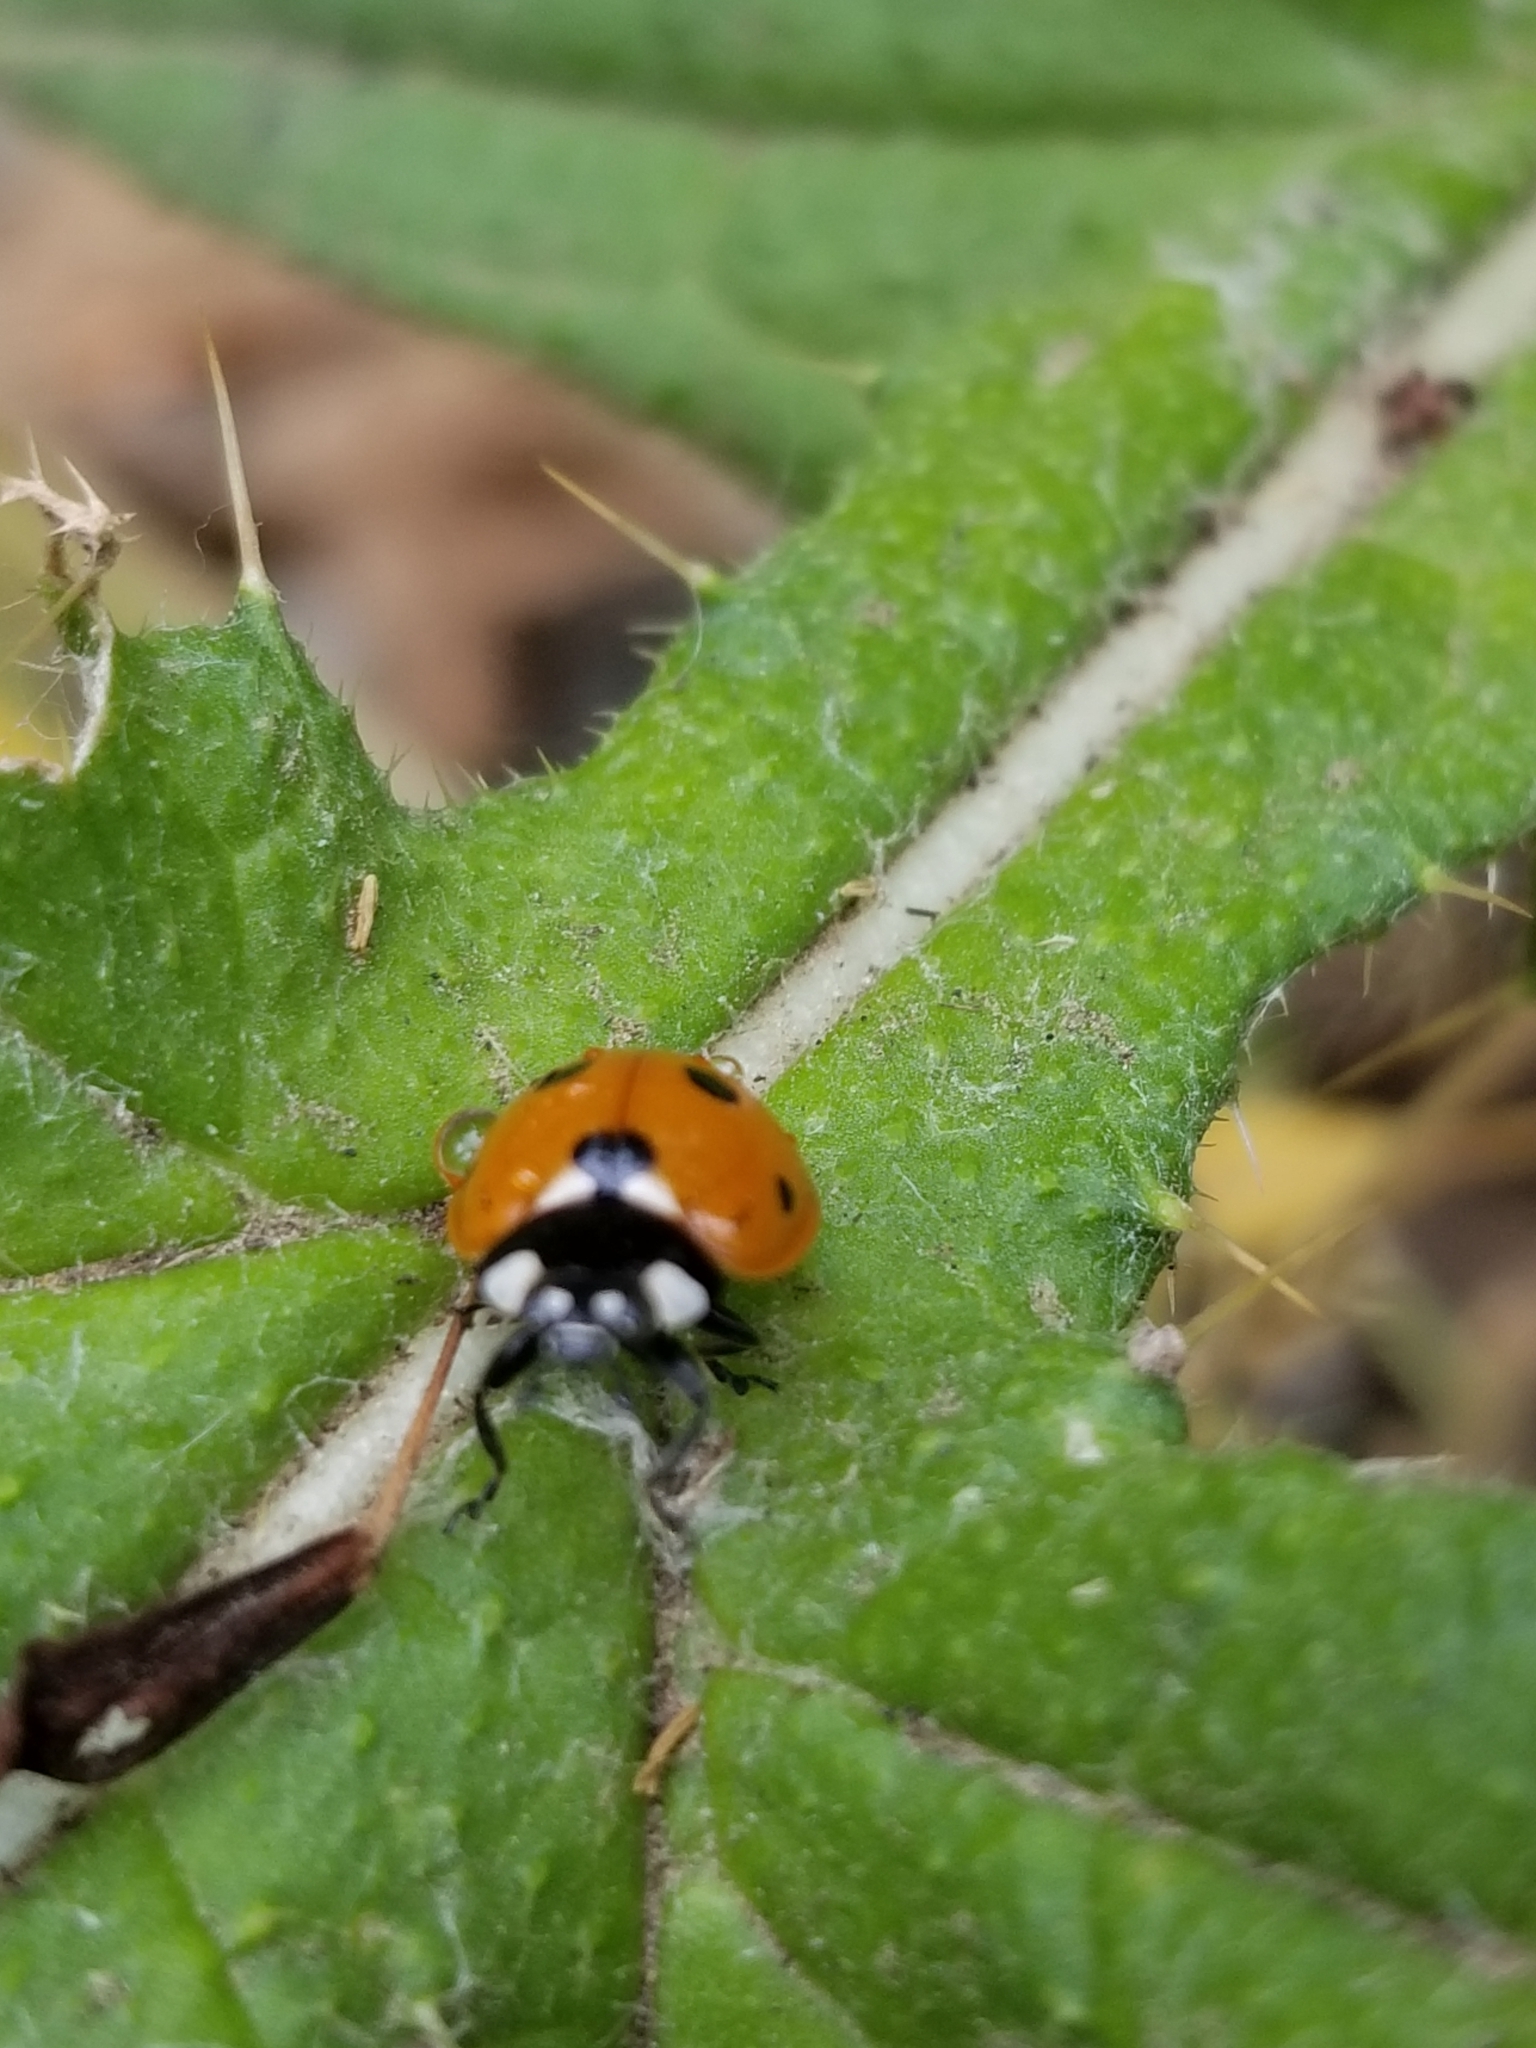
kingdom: Animalia
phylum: Arthropoda
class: Insecta
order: Coleoptera
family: Coccinellidae
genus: Coccinella
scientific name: Coccinella septempunctata
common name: Sevenspotted lady beetle
